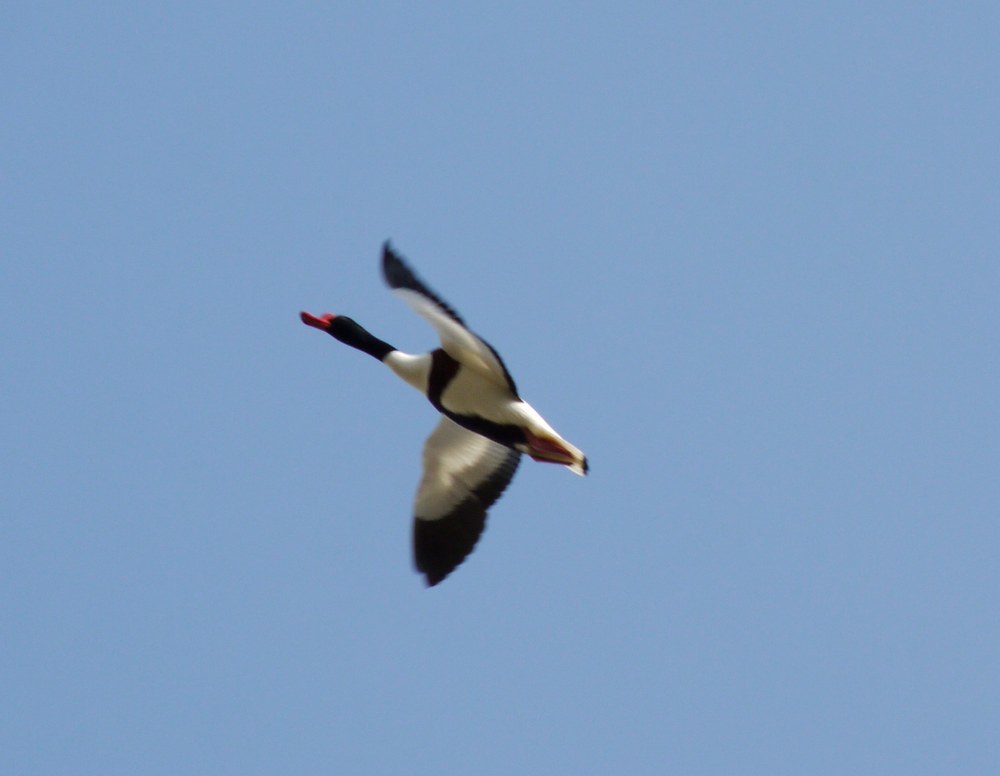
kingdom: Animalia
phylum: Chordata
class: Aves
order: Anseriformes
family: Anatidae
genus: Tadorna
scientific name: Tadorna tadorna
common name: Common shelduck
